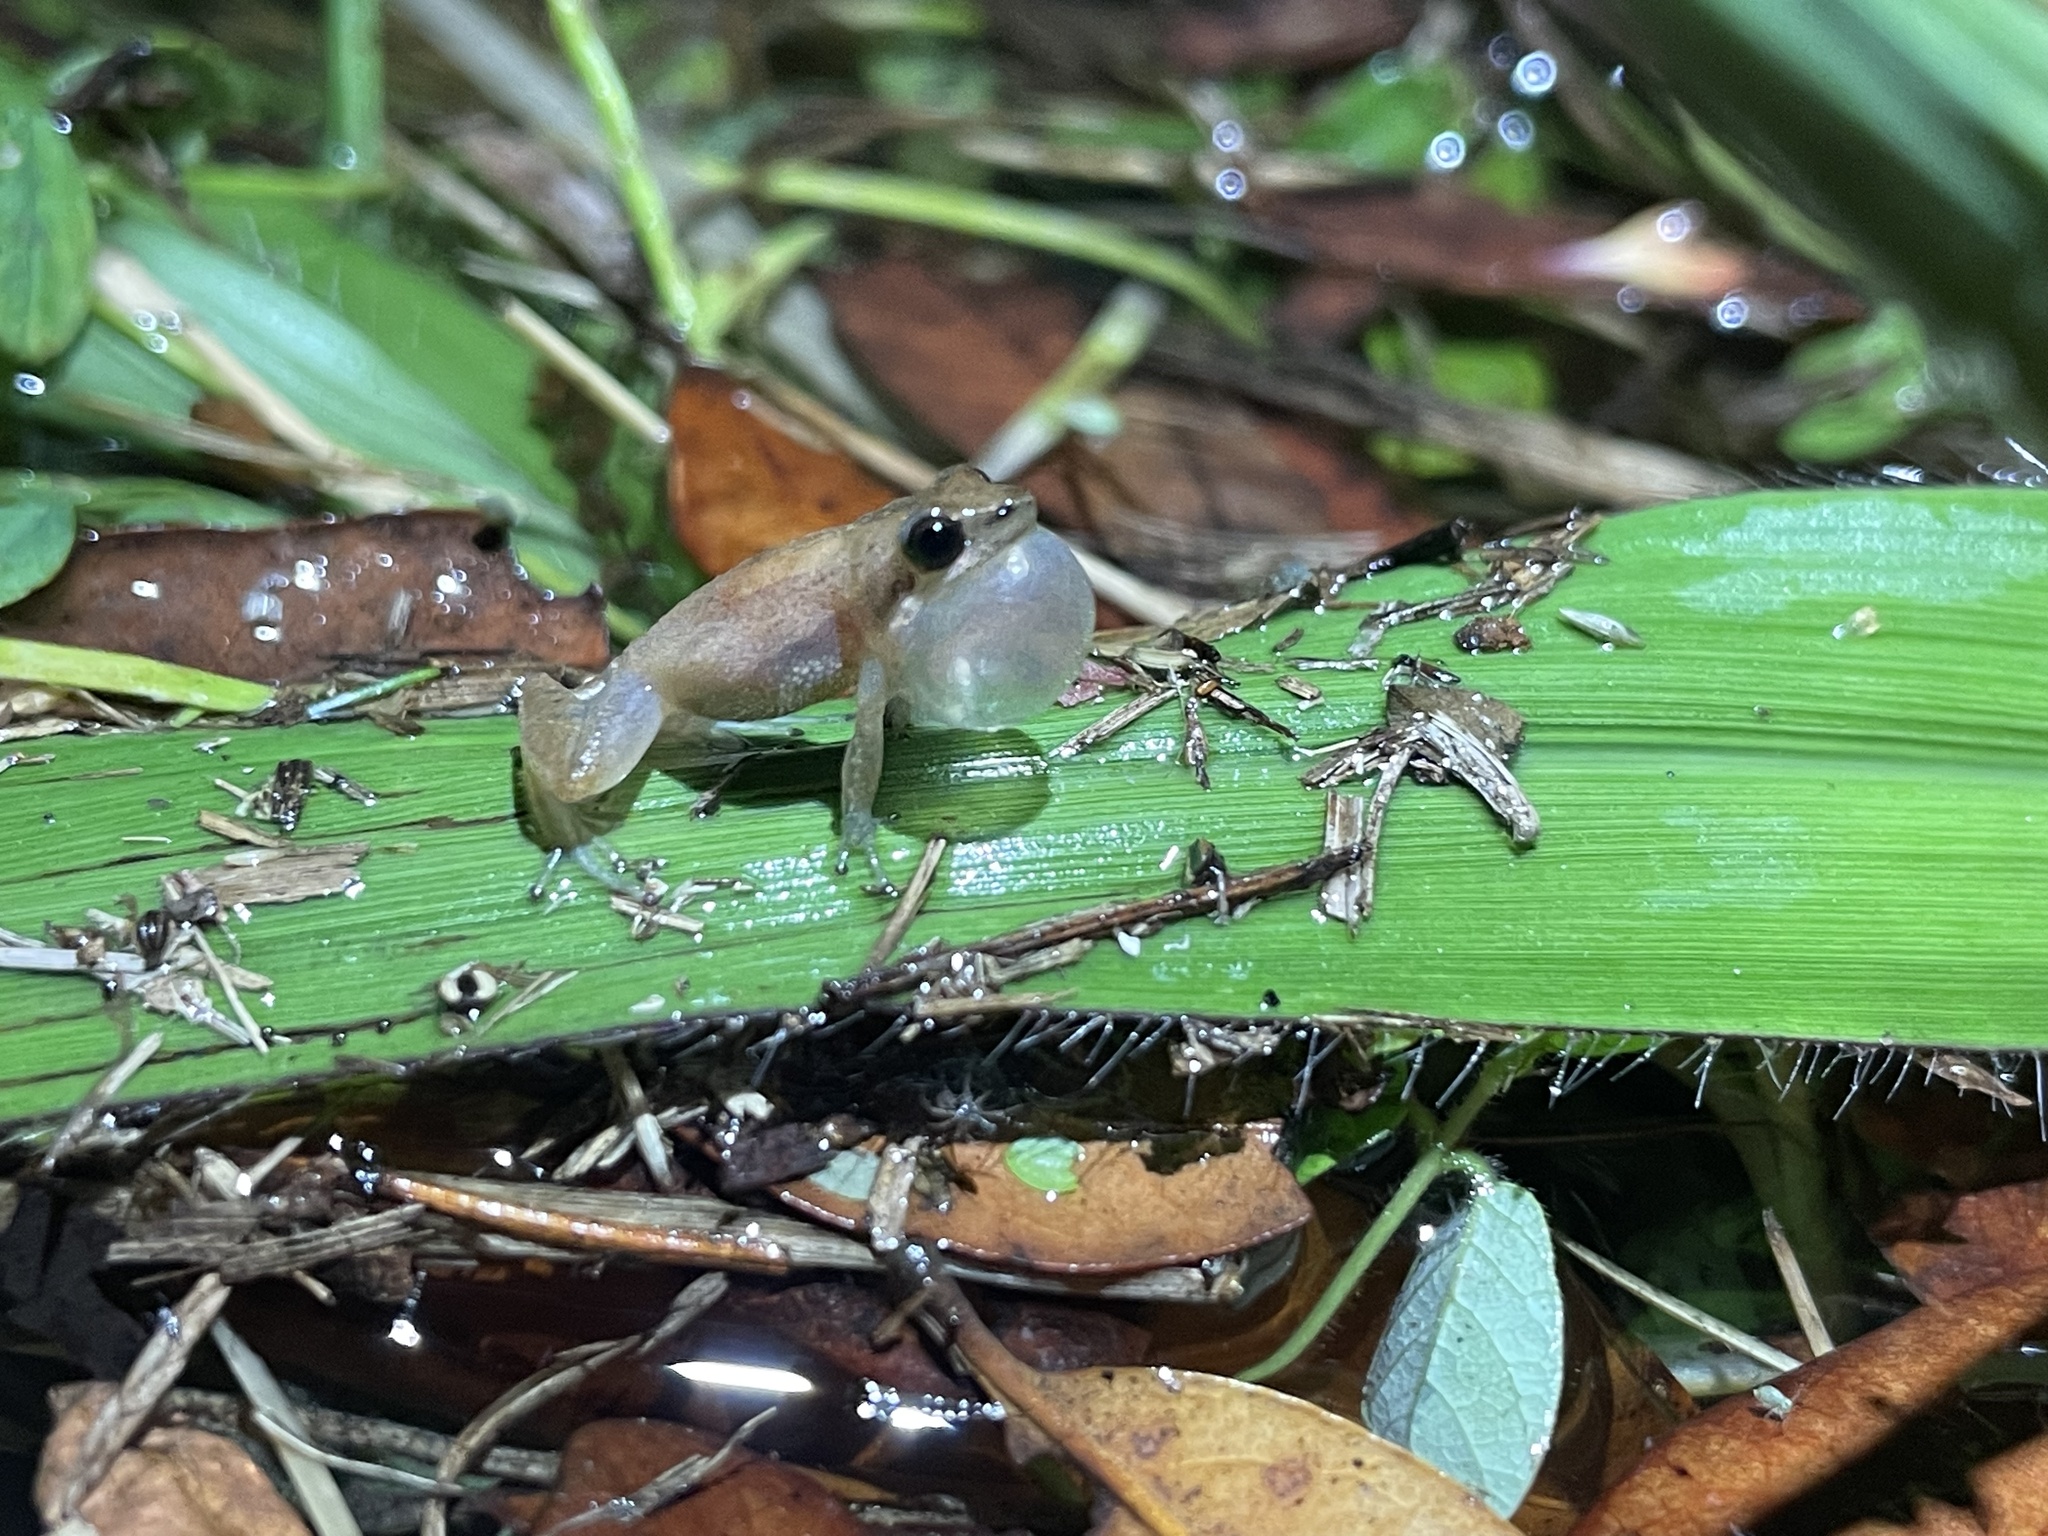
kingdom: Animalia
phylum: Chordata
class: Amphibia
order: Anura
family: Hylidae
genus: Pseudacris
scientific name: Pseudacris ocularis
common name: Little grass frog
